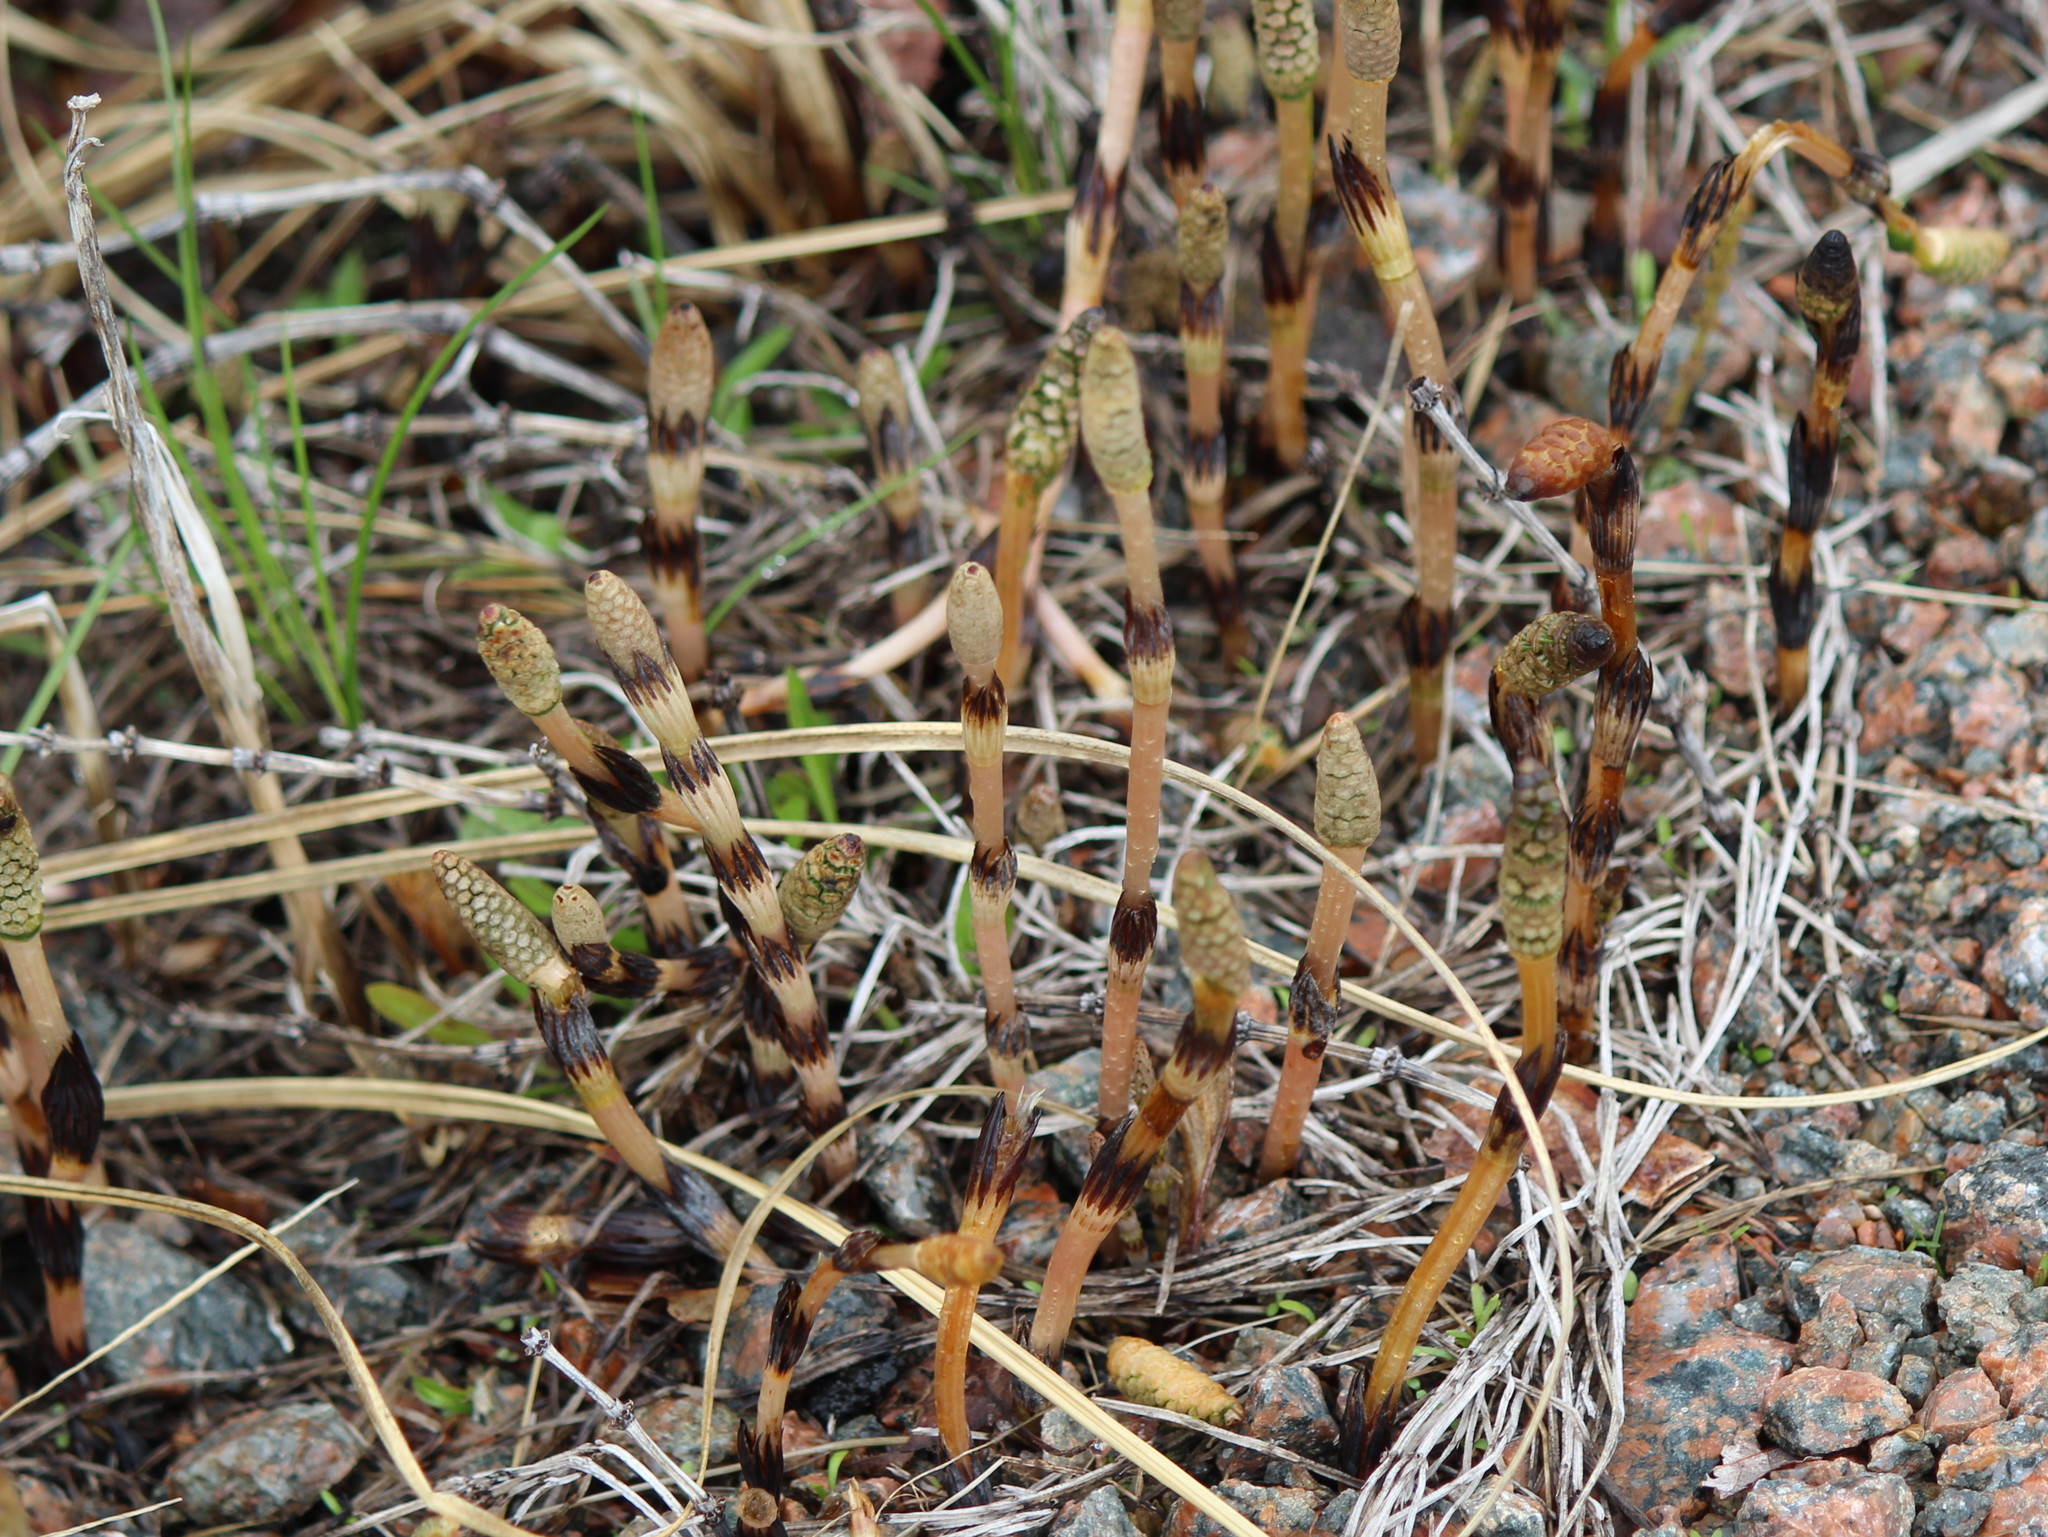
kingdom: Plantae
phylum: Tracheophyta
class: Polypodiopsida
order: Equisetales
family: Equisetaceae
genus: Equisetum
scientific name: Equisetum arvense
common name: Field horsetail
